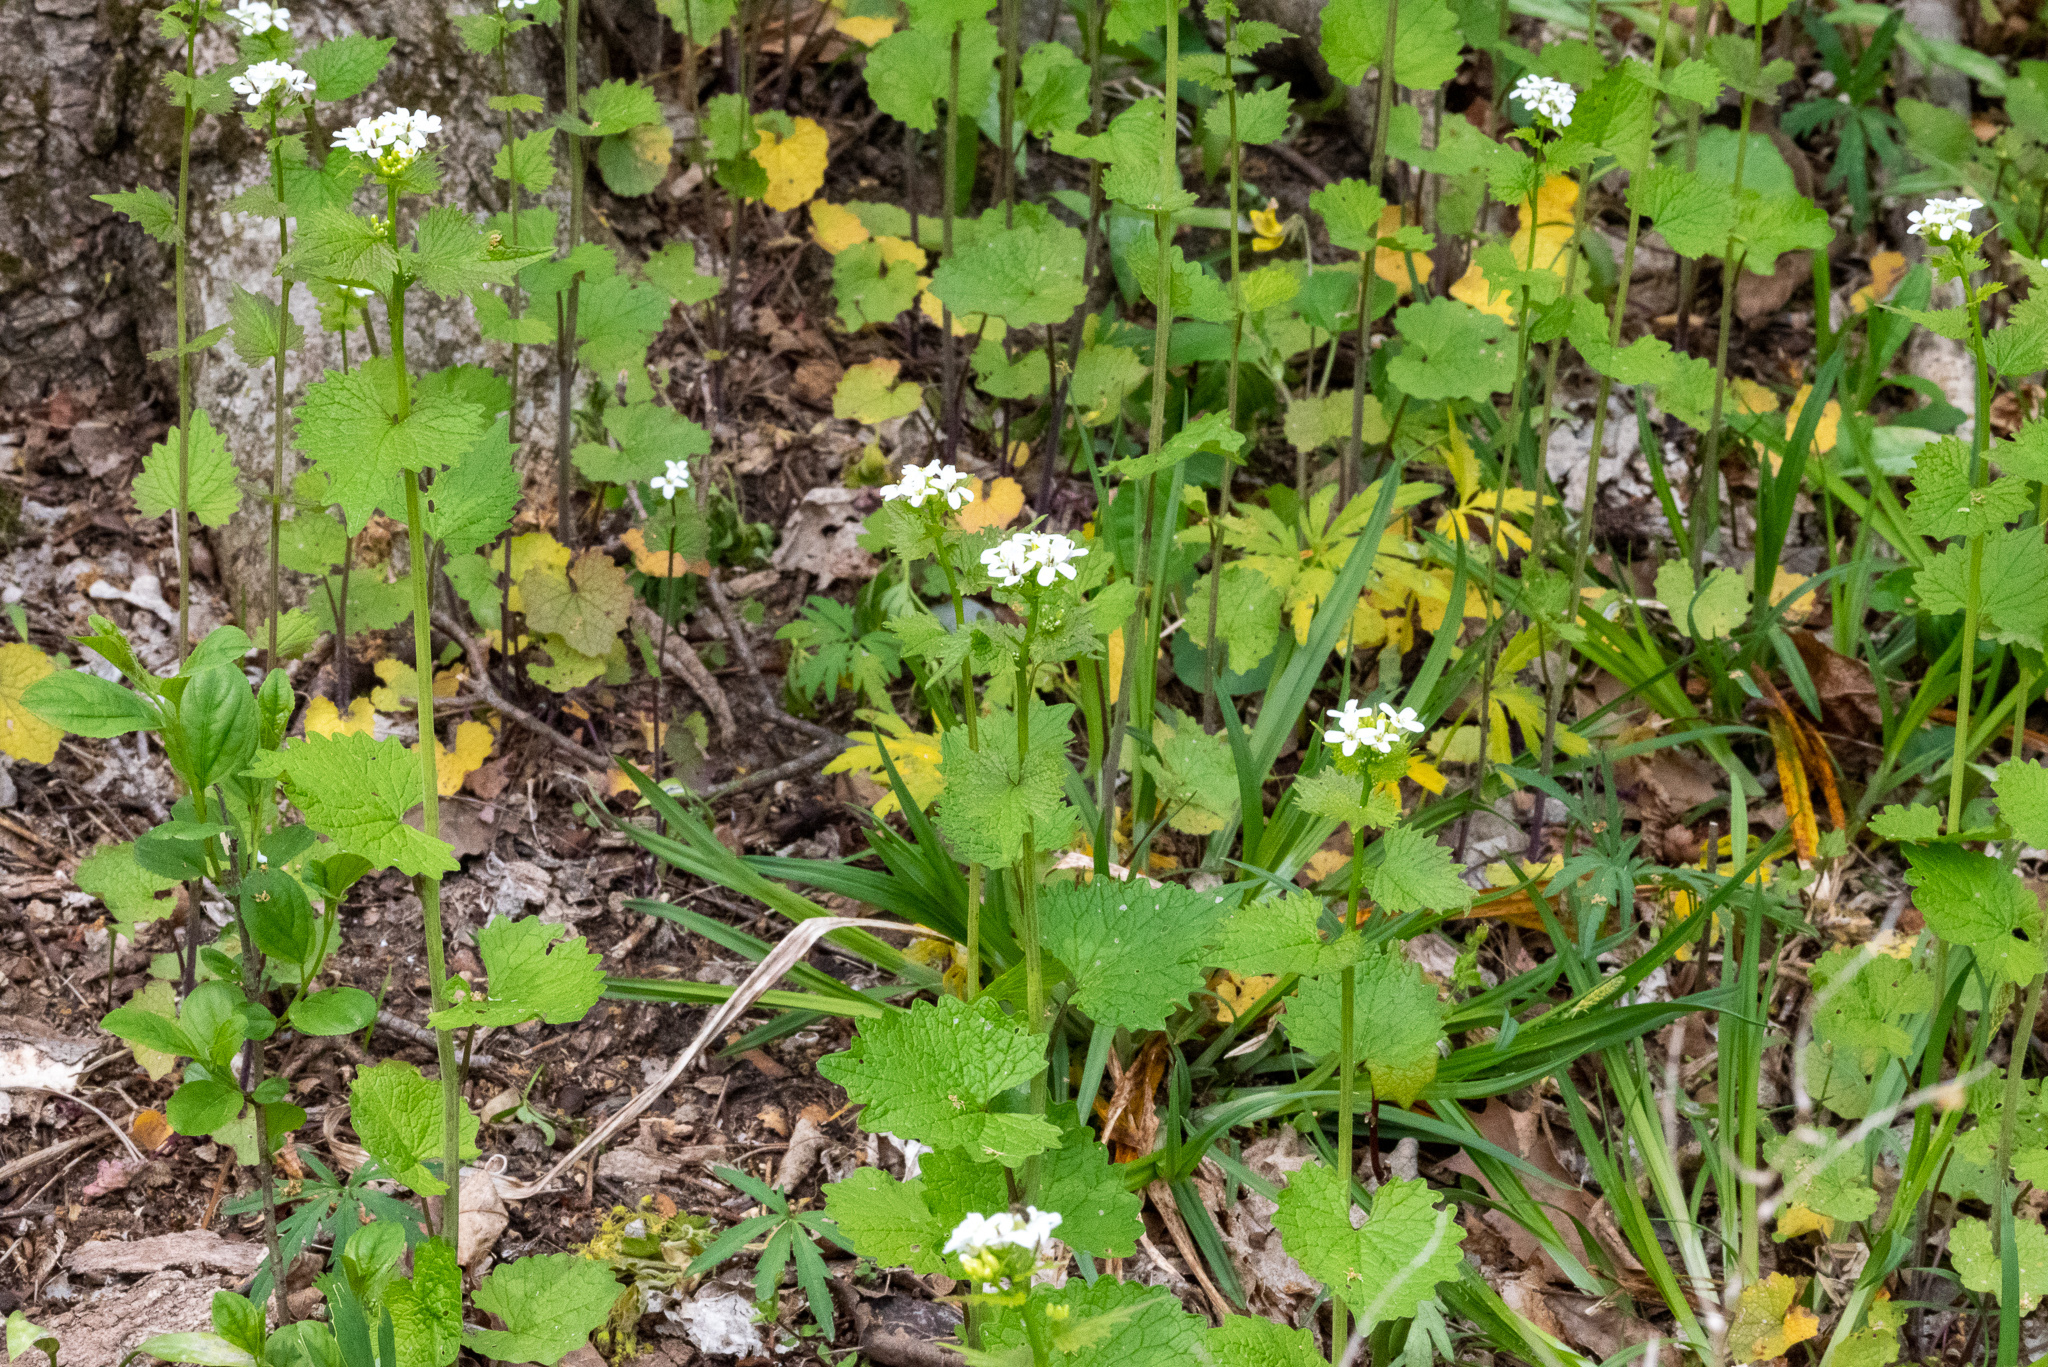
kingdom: Plantae
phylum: Tracheophyta
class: Magnoliopsida
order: Brassicales
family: Brassicaceae
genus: Alliaria
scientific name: Alliaria petiolata
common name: Garlic mustard
